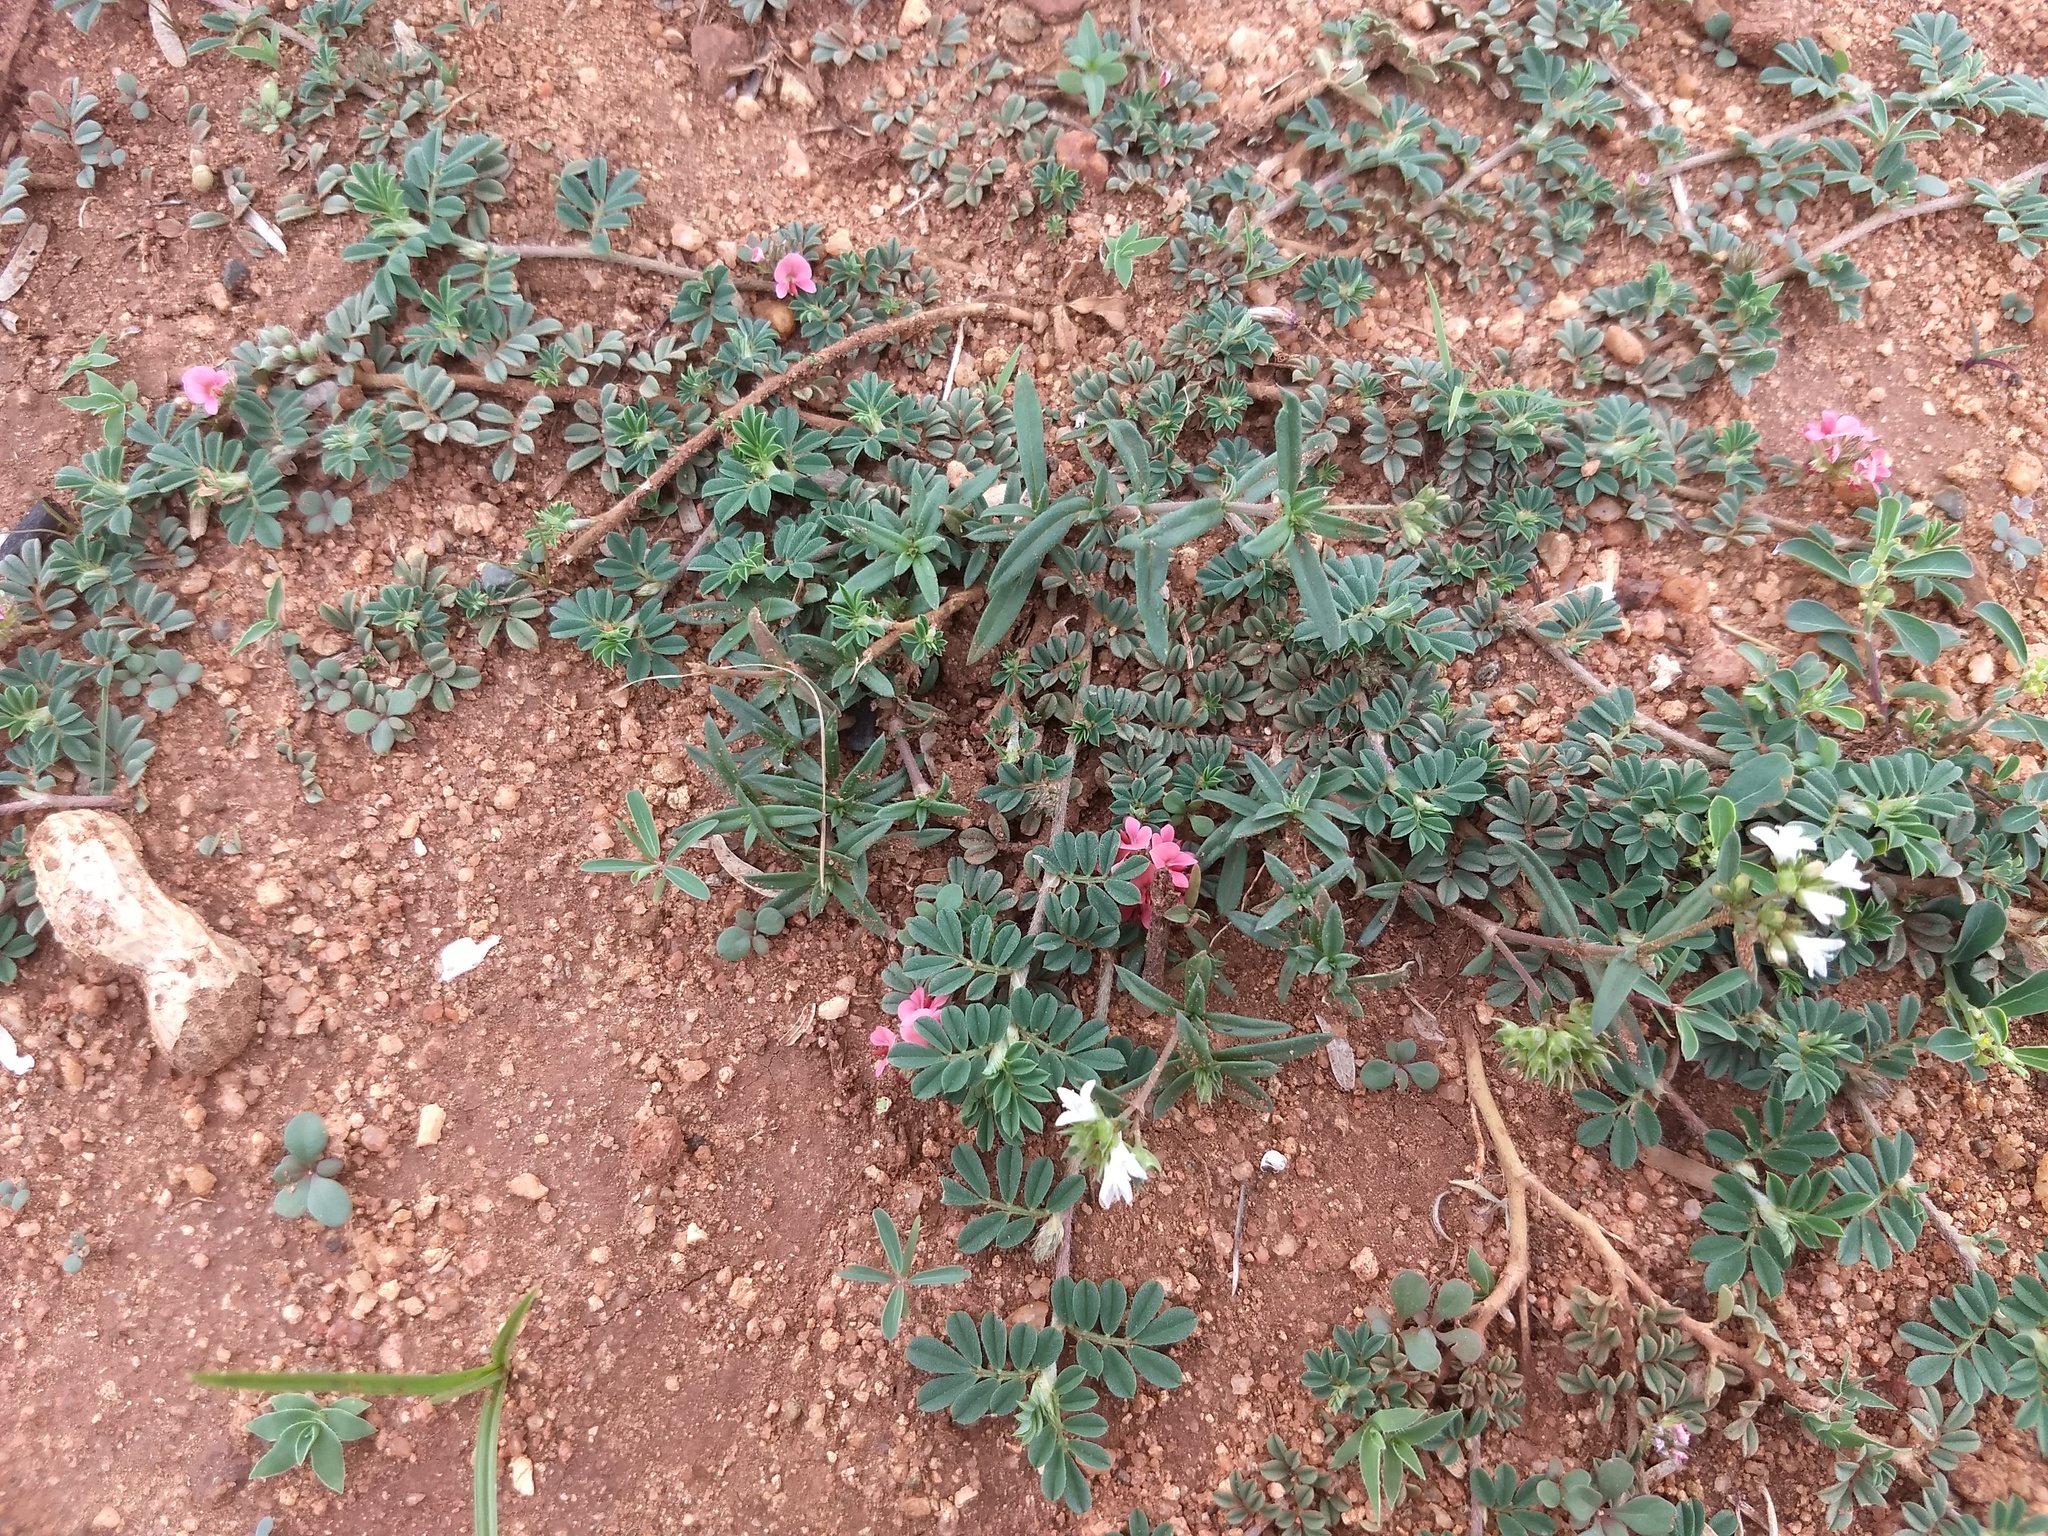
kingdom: Plantae
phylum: Tracheophyta
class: Magnoliopsida
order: Fabales
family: Fabaceae
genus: Indigofera
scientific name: Indigofera linnaei
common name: Nine-leaf indigo
